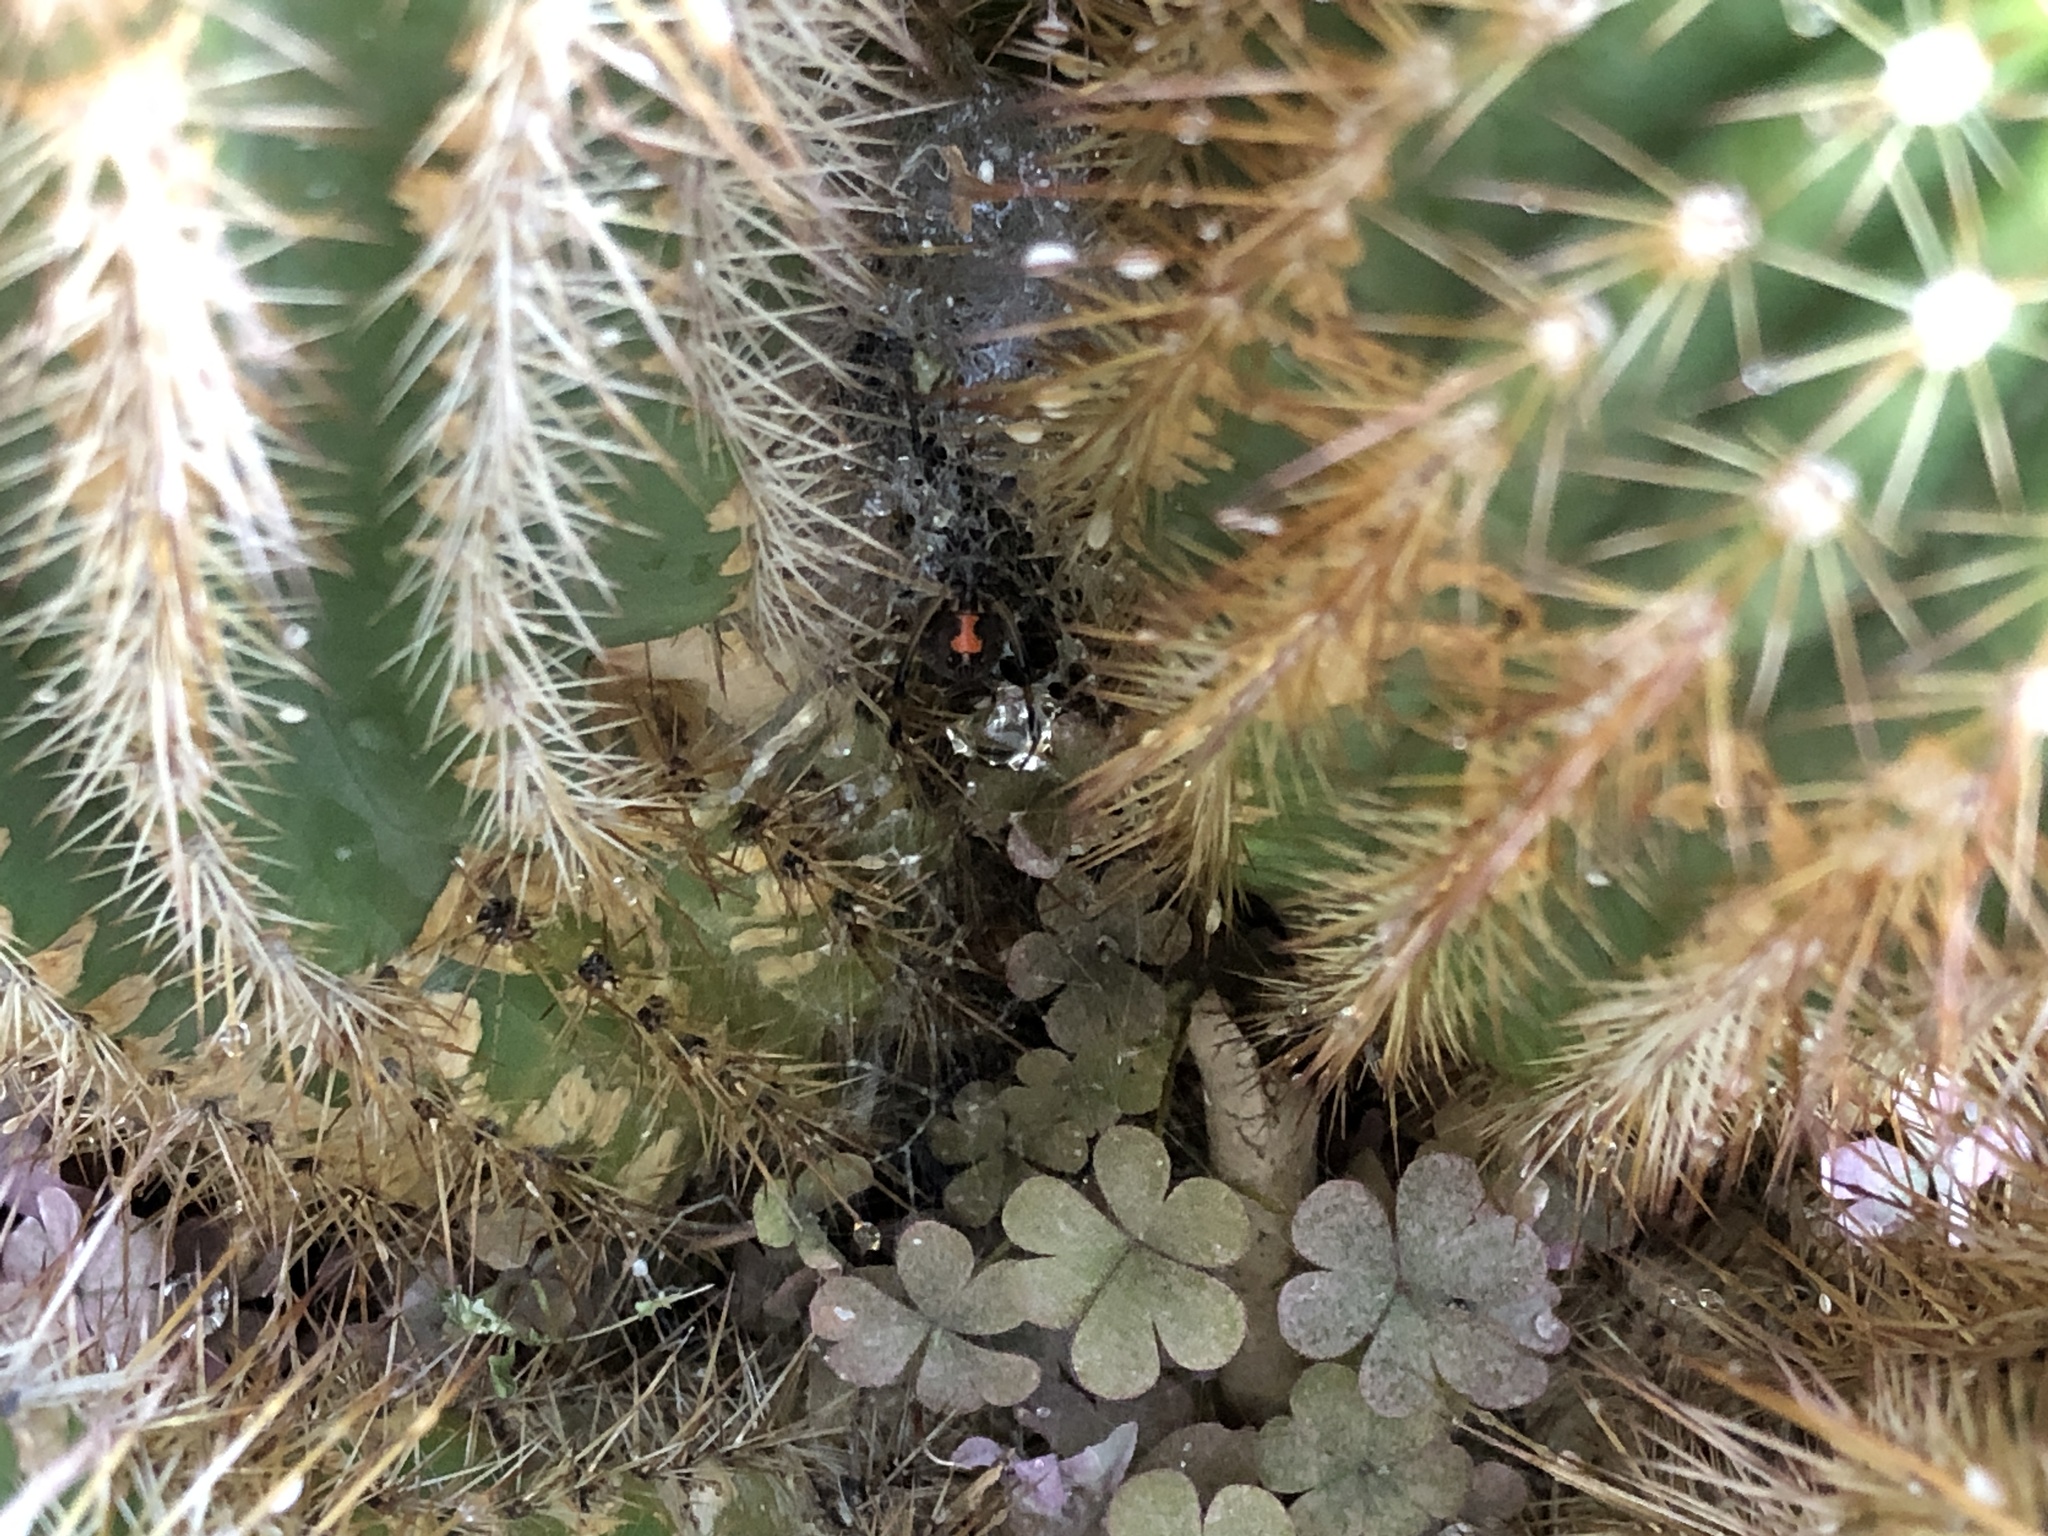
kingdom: Animalia
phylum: Arthropoda
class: Arachnida
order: Araneae
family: Theridiidae
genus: Latrodectus
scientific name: Latrodectus geometricus
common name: Brown widow spider
